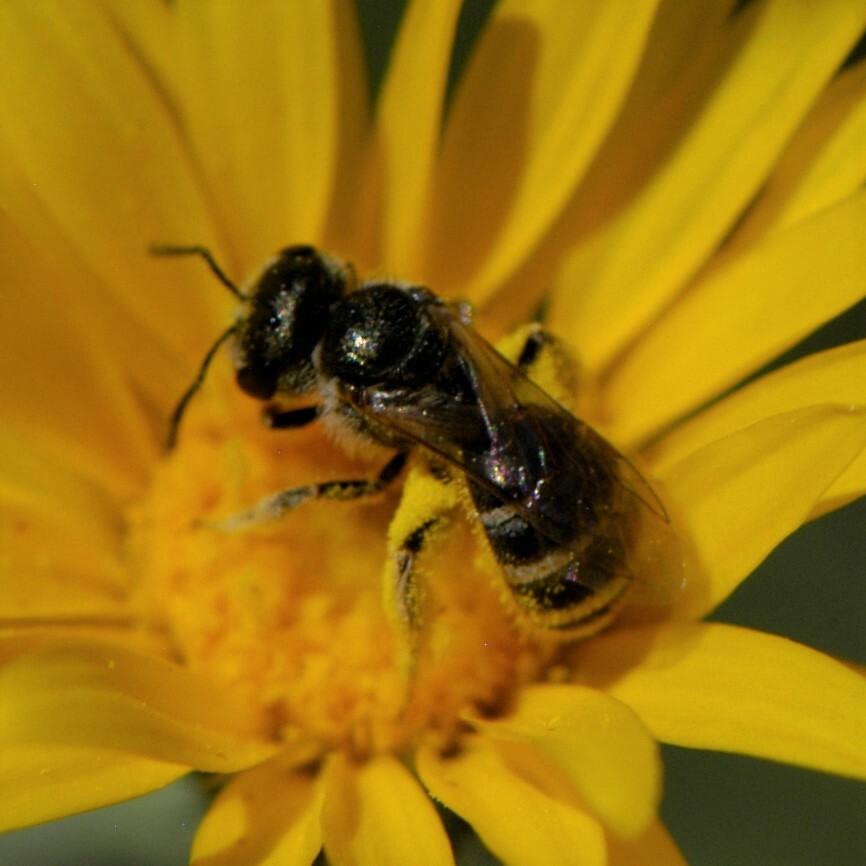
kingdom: Animalia
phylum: Arthropoda
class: Insecta
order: Hymenoptera
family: Halictidae
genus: Halictus
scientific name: Halictus tripartitus
